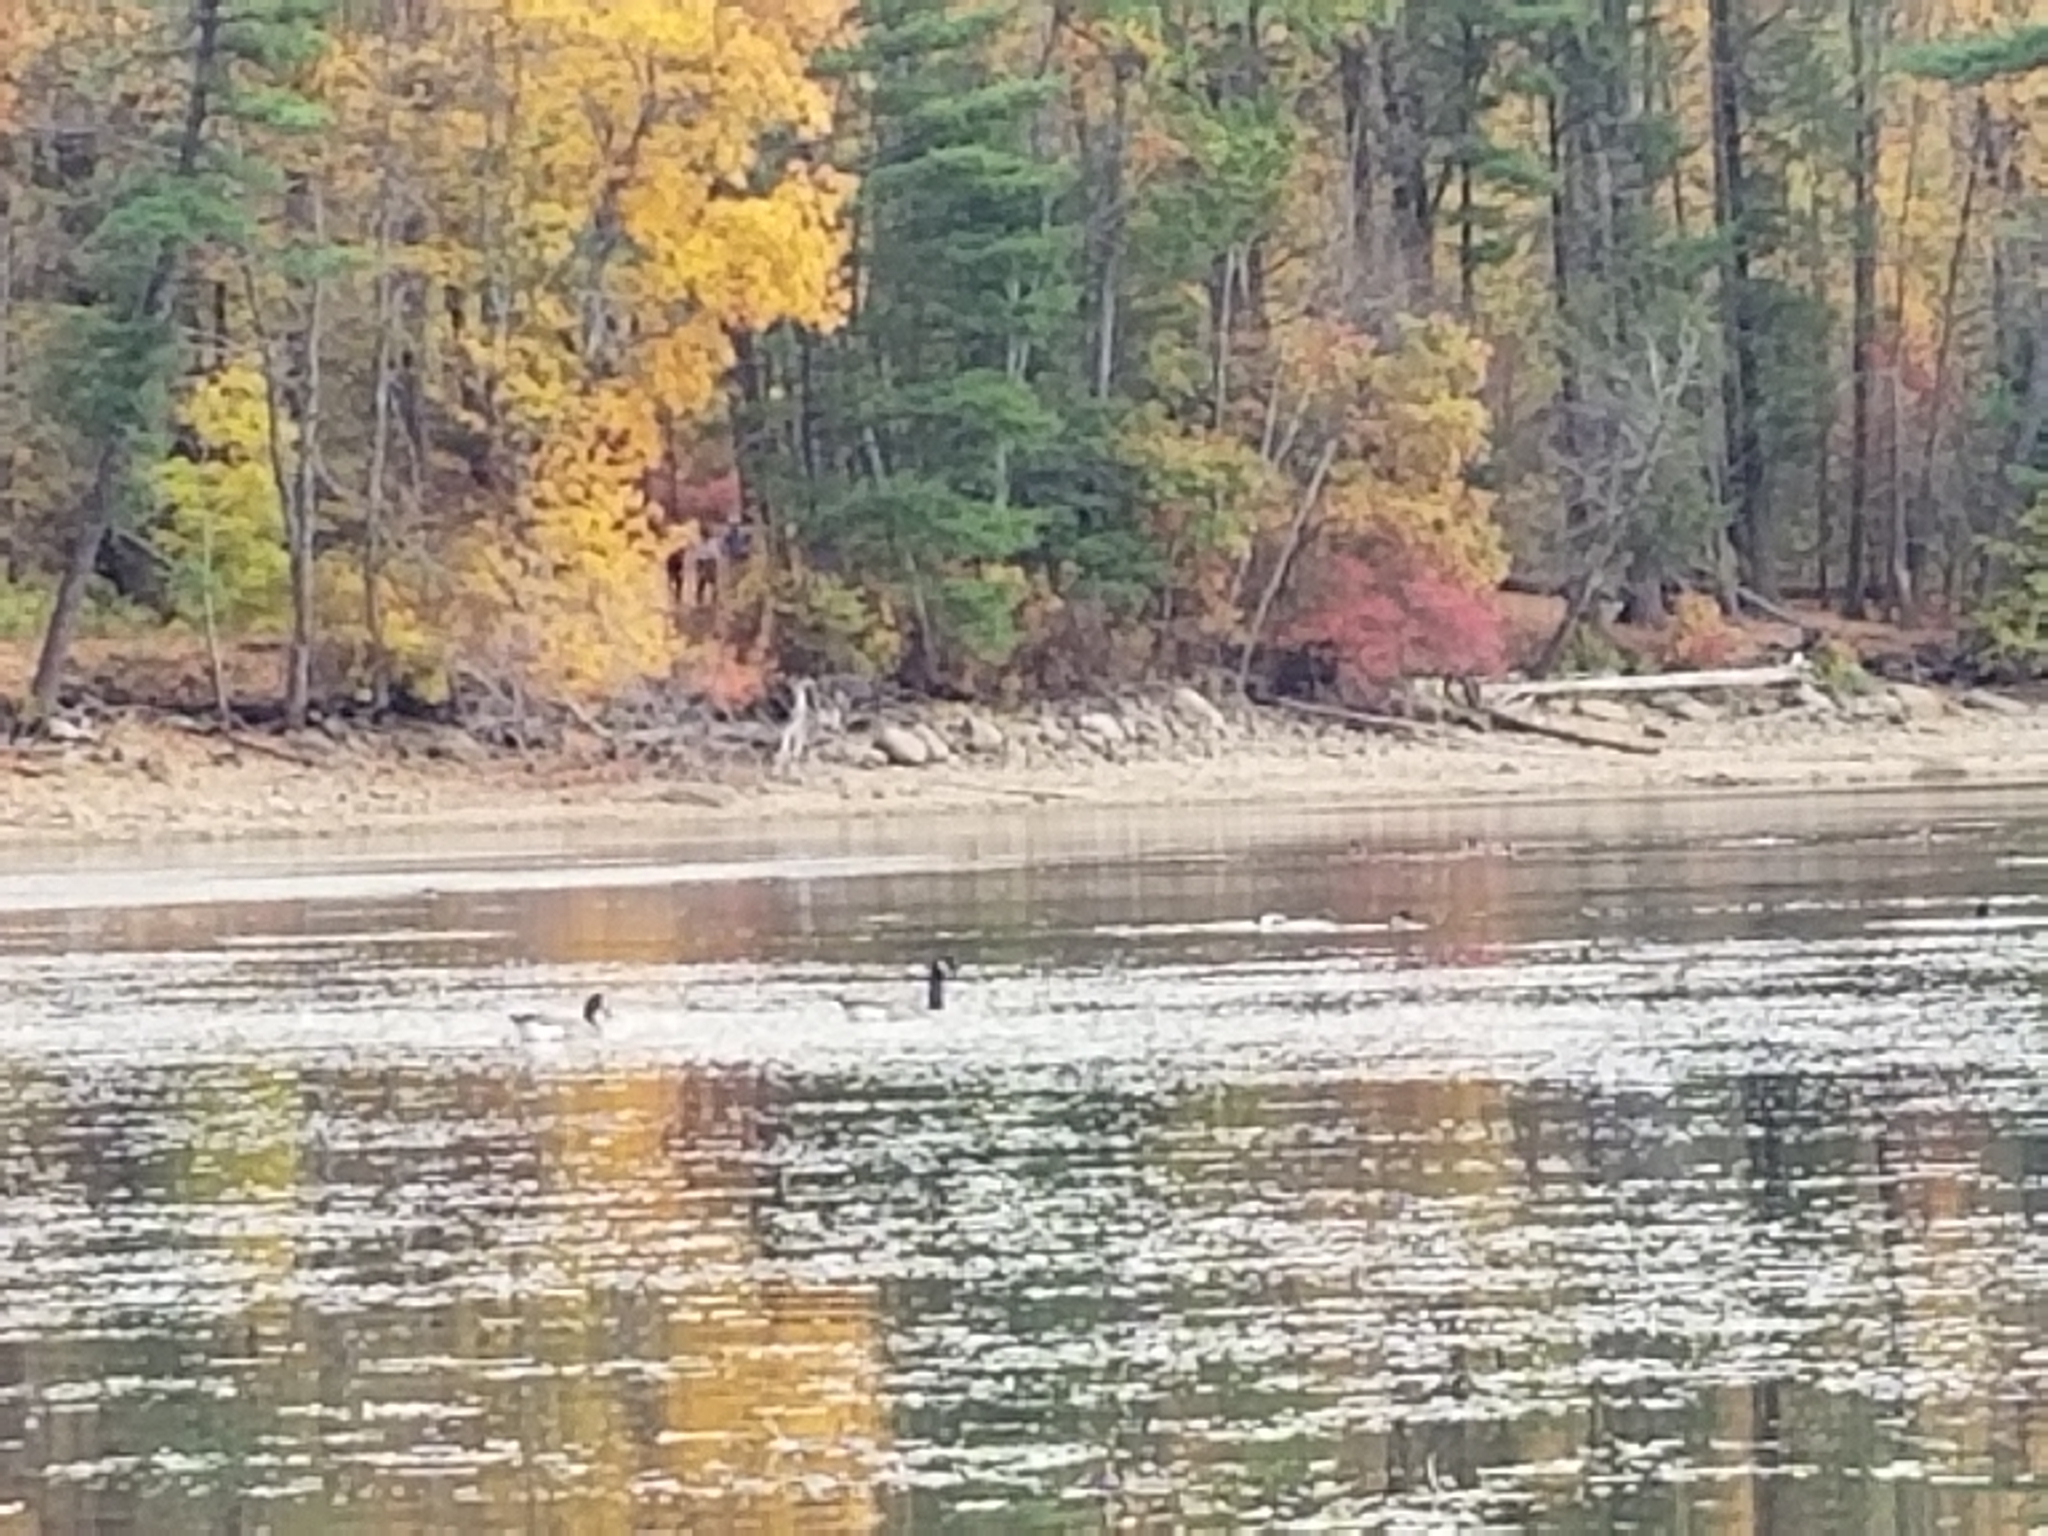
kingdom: Animalia
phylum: Chordata
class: Aves
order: Anseriformes
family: Anatidae
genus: Branta
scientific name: Branta canadensis
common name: Canada goose
